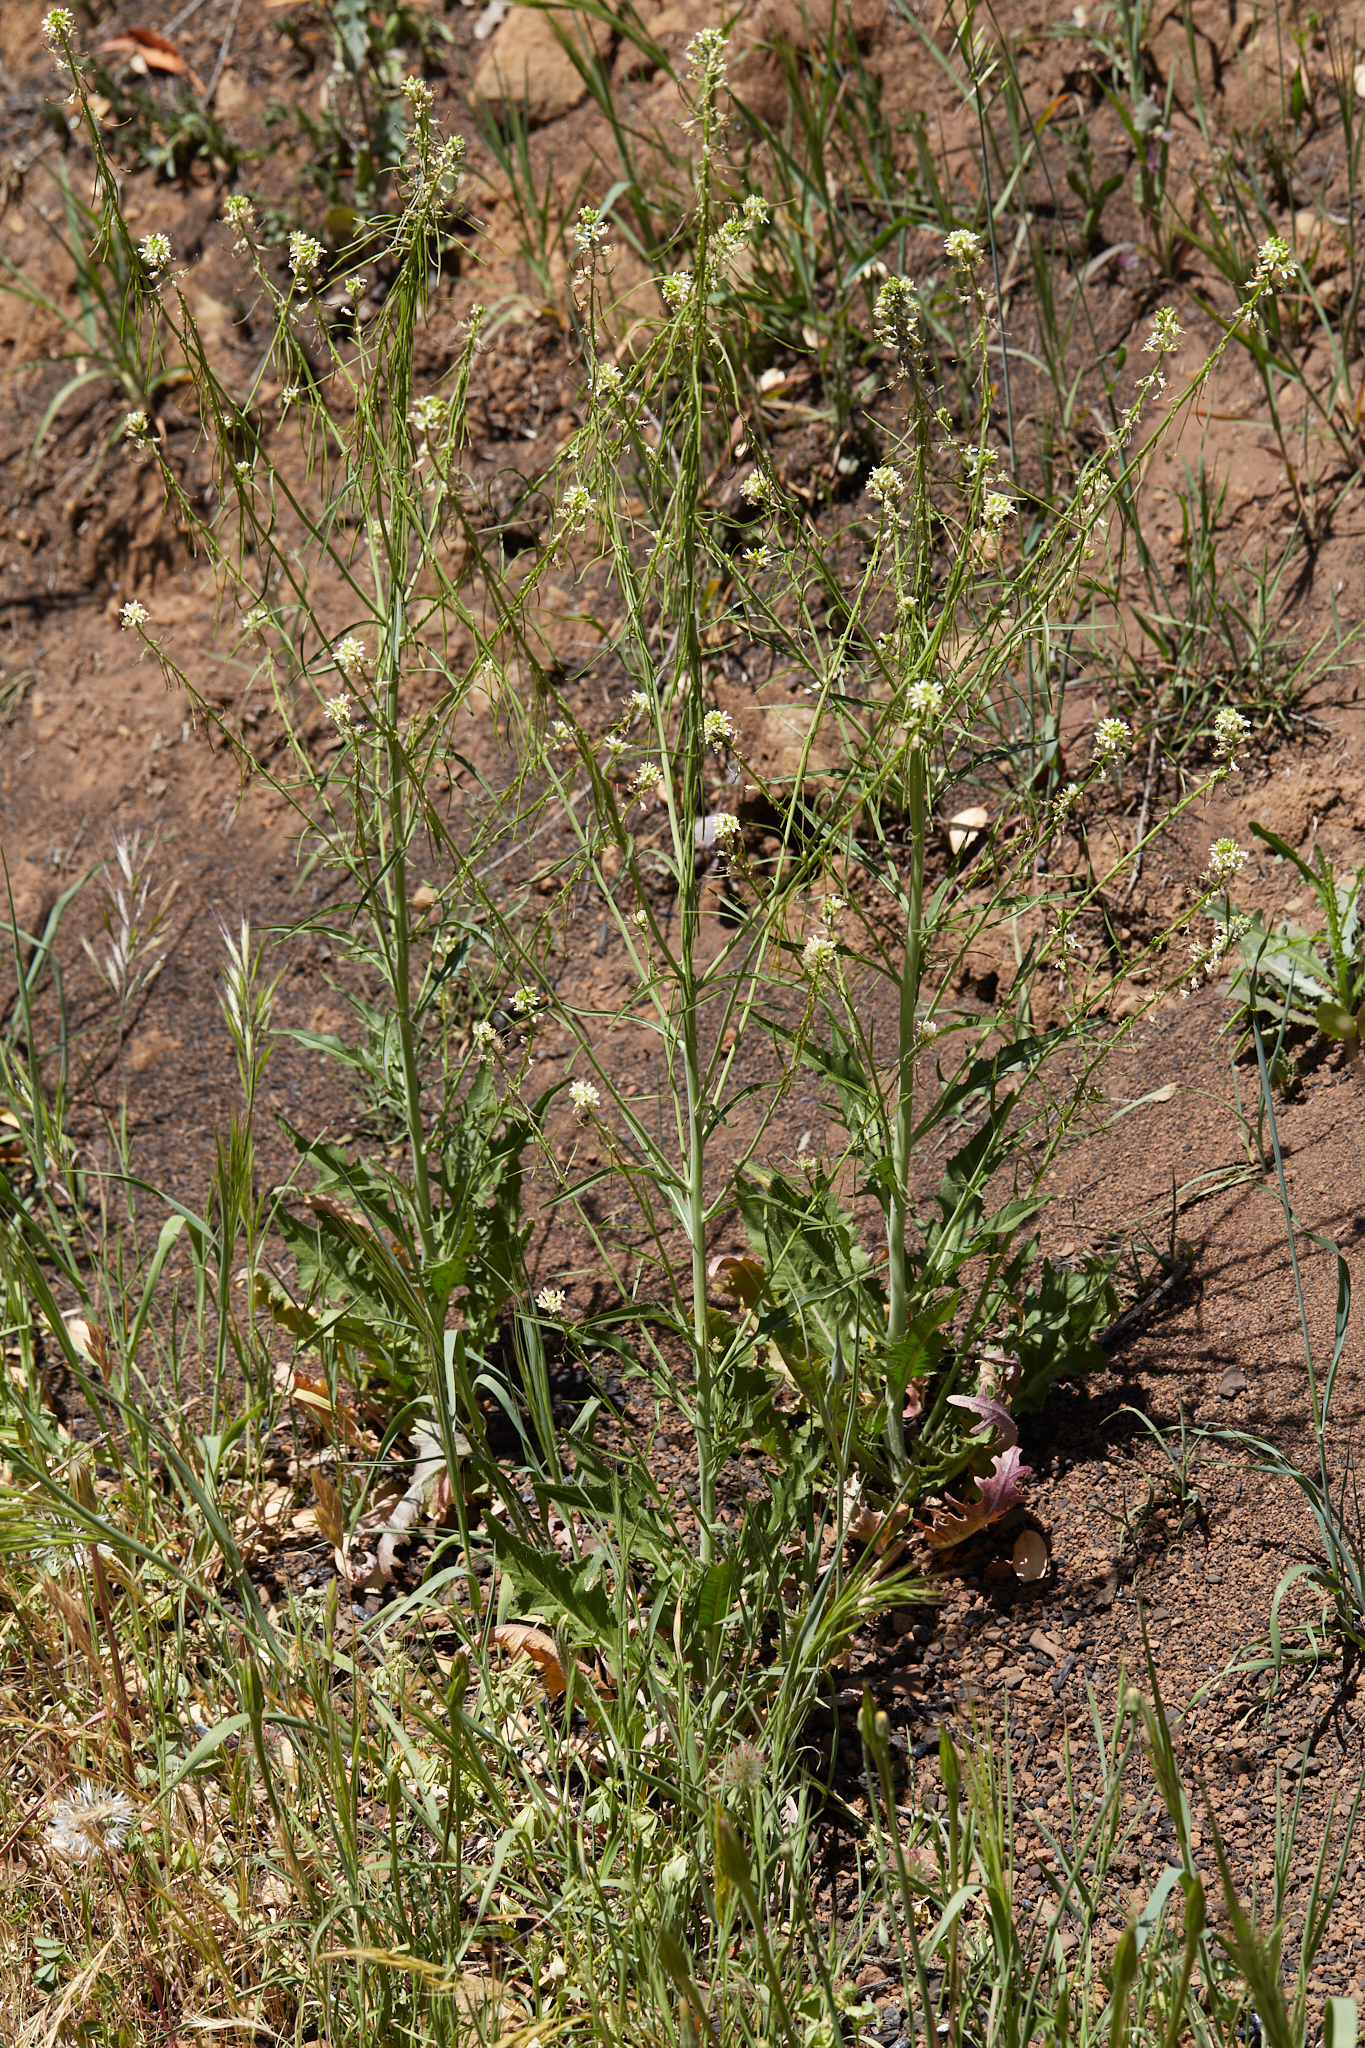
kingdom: Plantae
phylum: Tracheophyta
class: Magnoliopsida
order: Brassicales
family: Brassicaceae
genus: Streptanthus
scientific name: Streptanthus lasiophyllus
